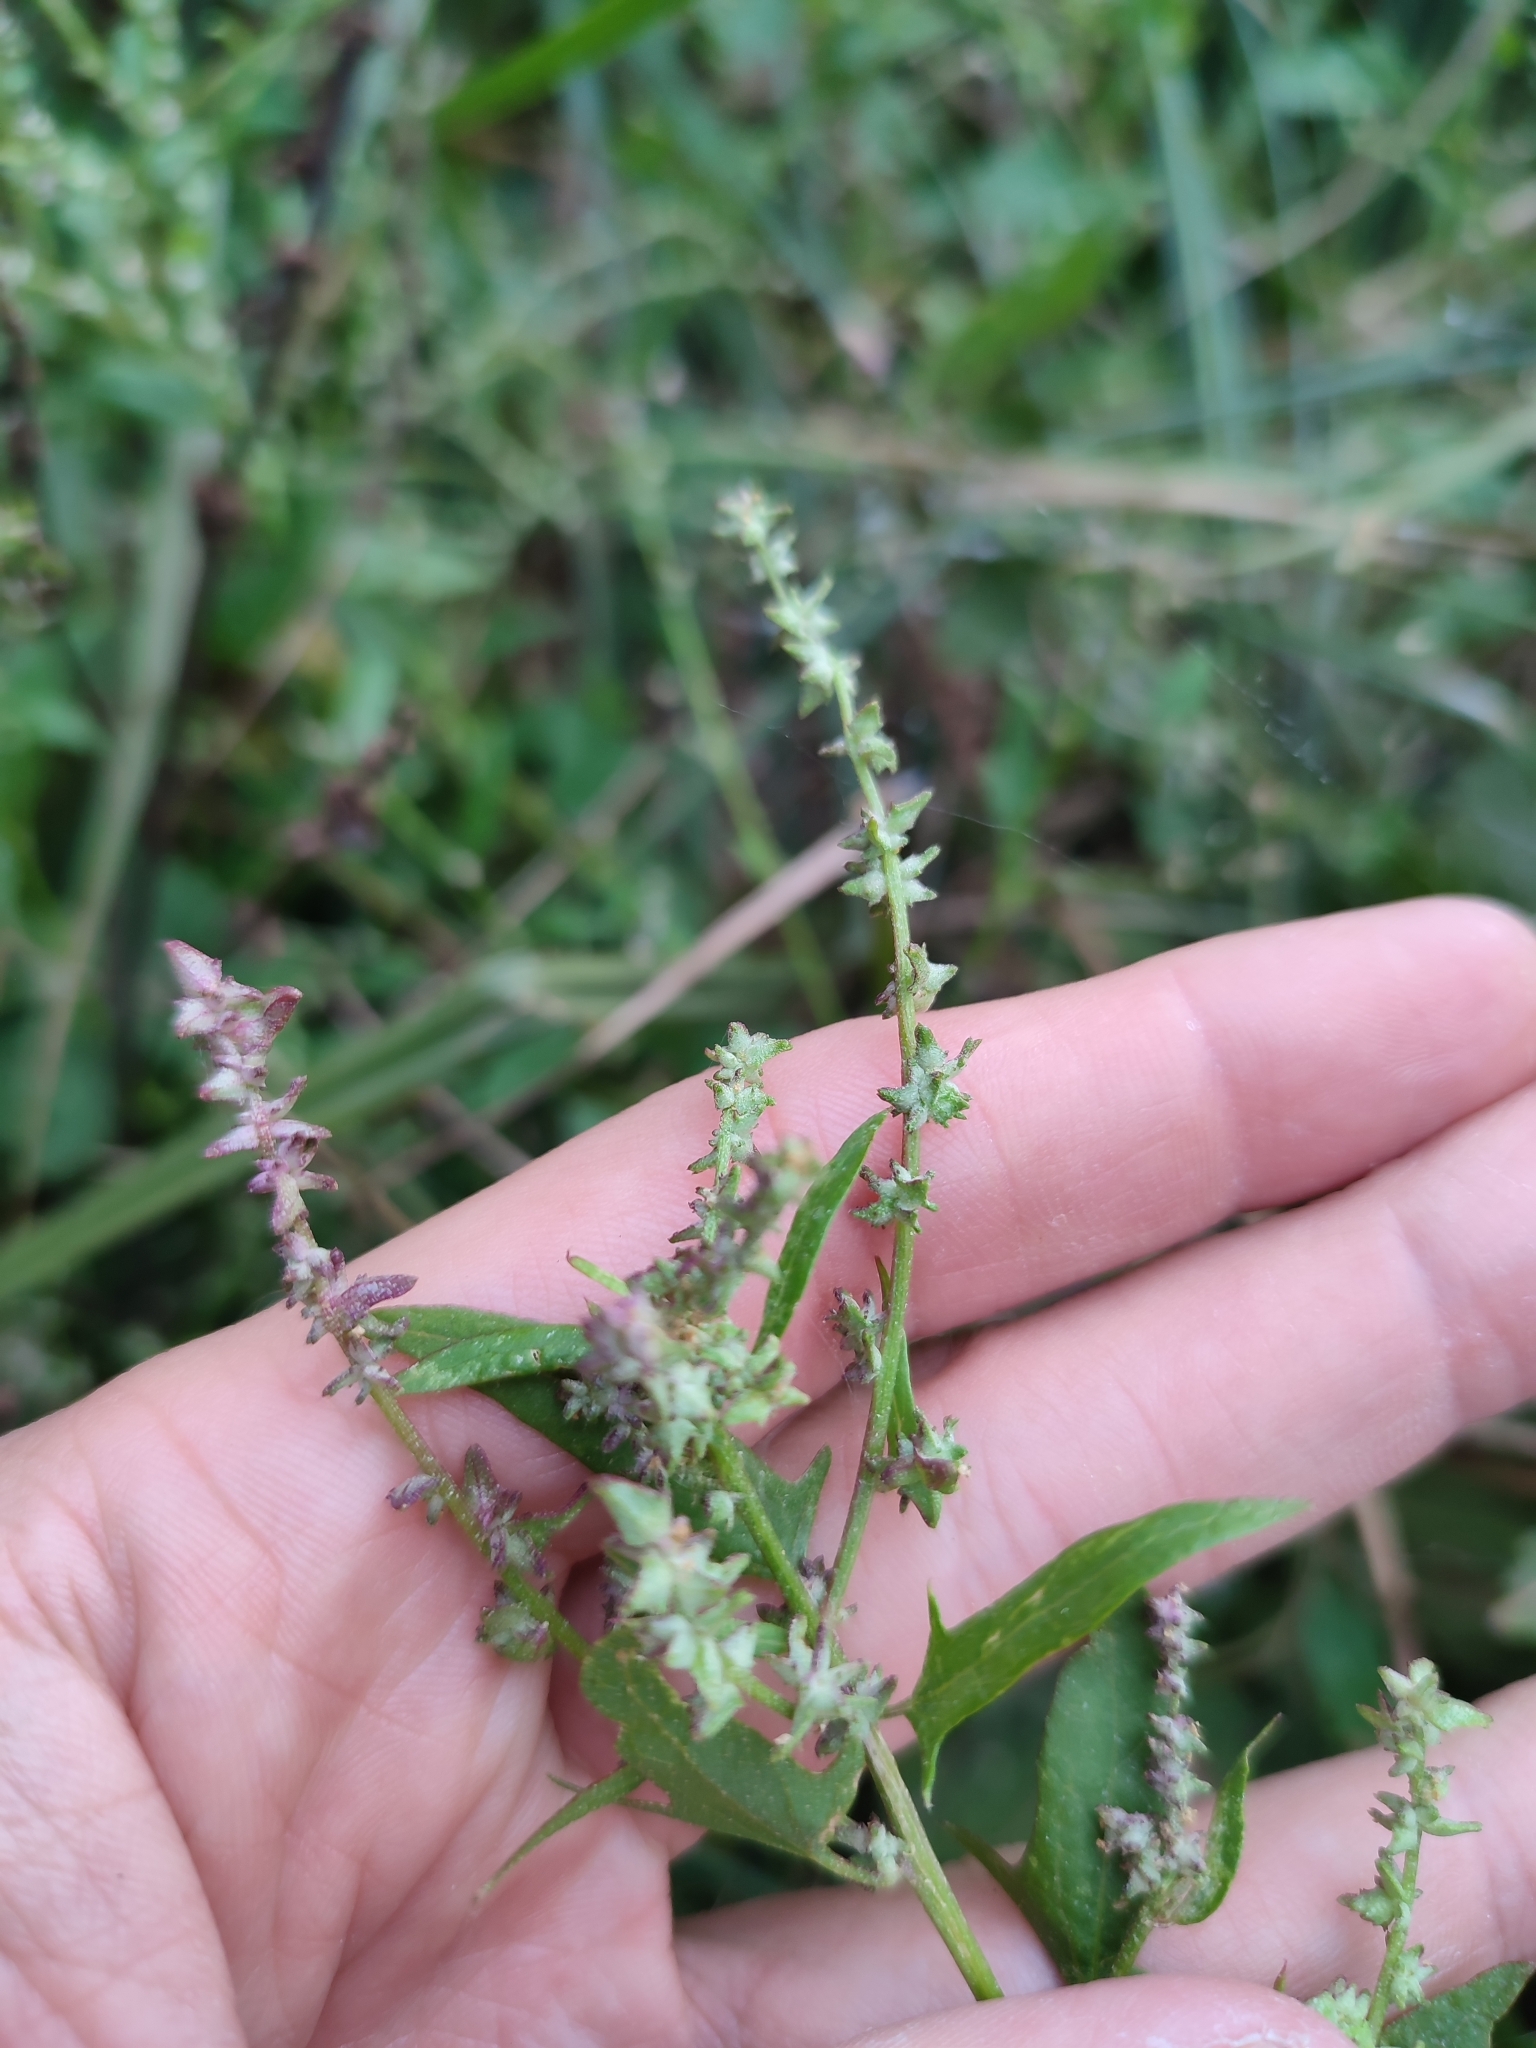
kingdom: Plantae
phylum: Tracheophyta
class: Magnoliopsida
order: Caryophyllales
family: Amaranthaceae
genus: Atriplex
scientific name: Atriplex prostrata
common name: Spear-leaved orache
